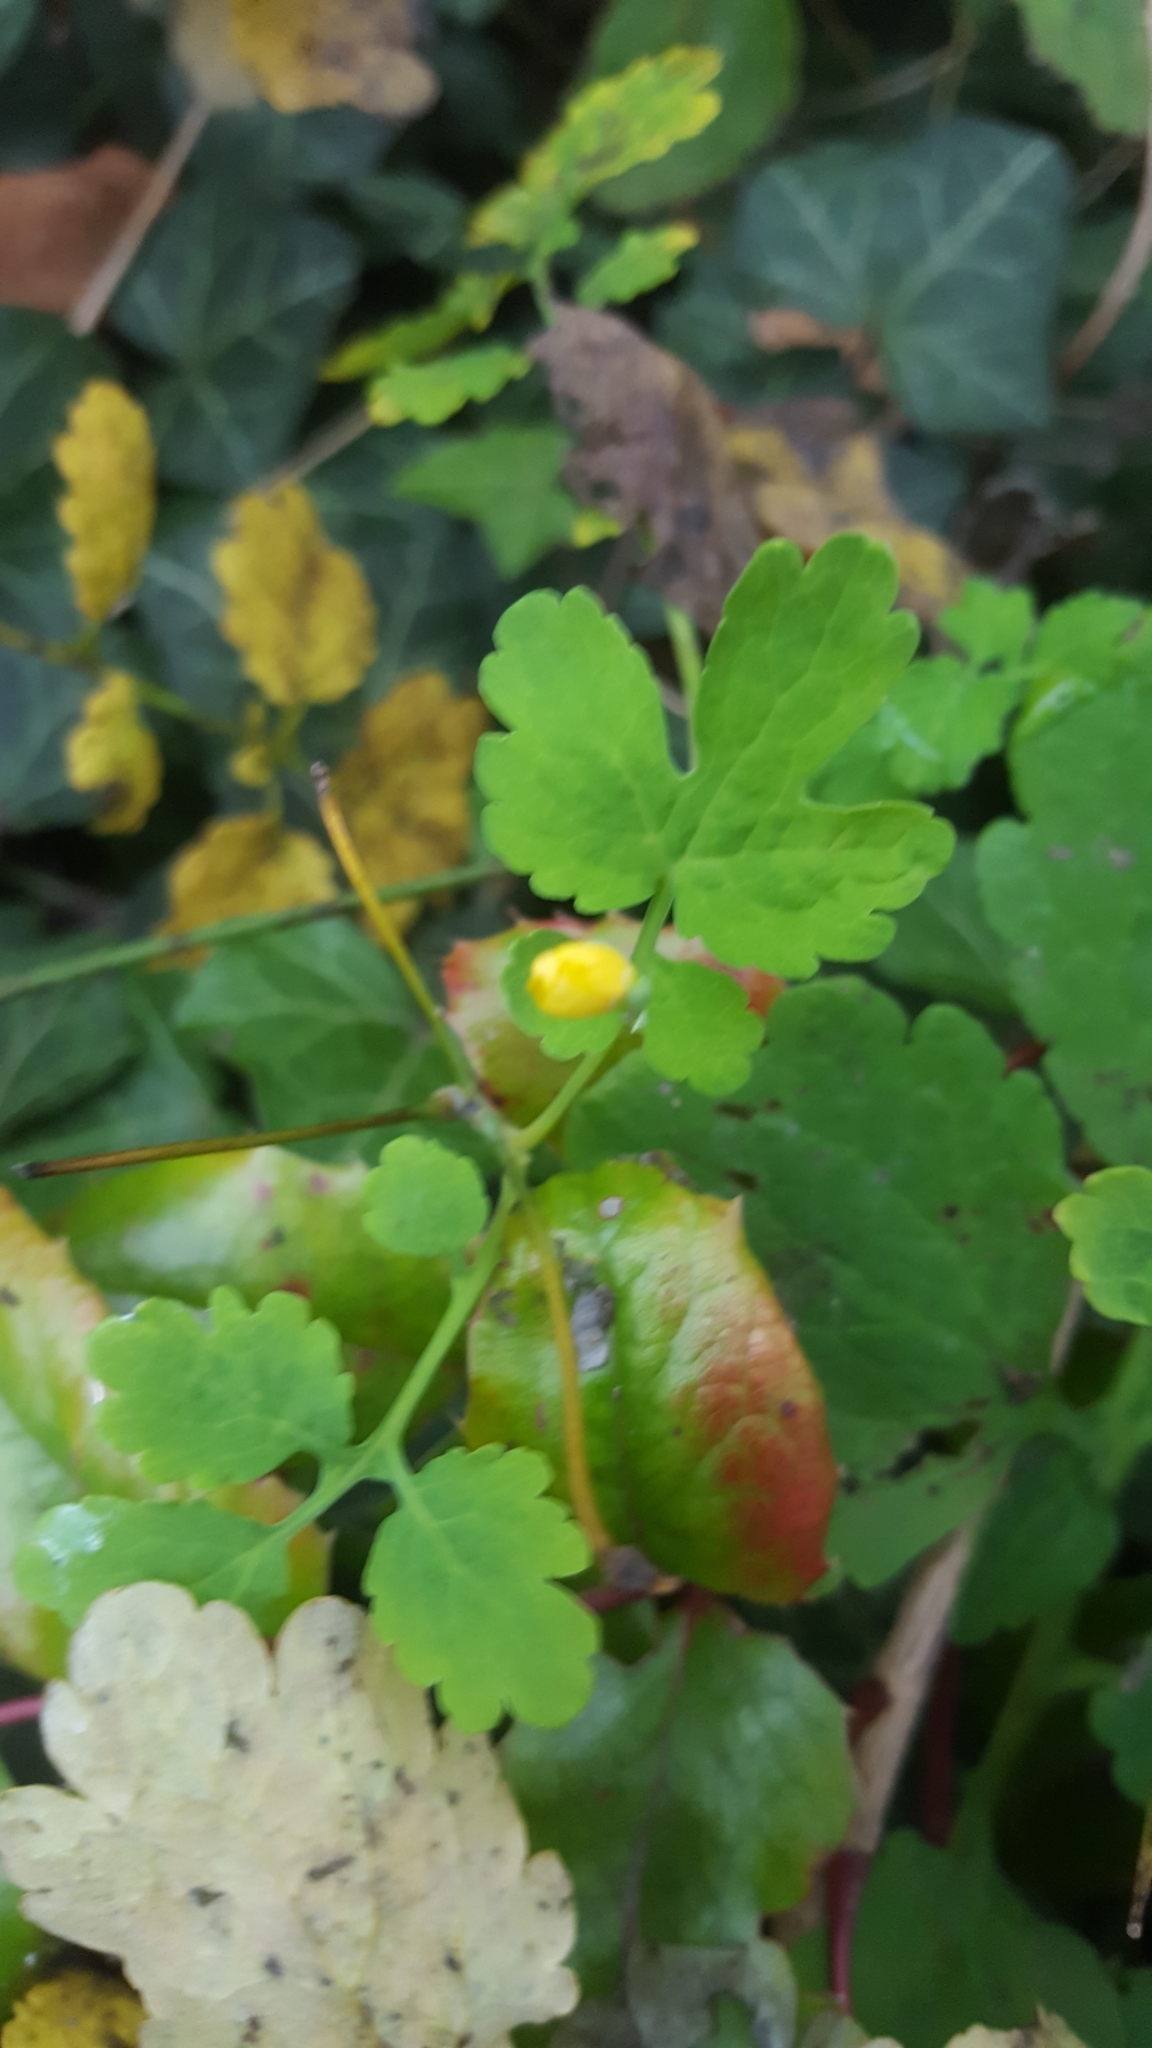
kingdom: Plantae
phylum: Tracheophyta
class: Magnoliopsida
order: Ranunculales
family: Papaveraceae
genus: Chelidonium
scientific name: Chelidonium majus
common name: Greater celandine
